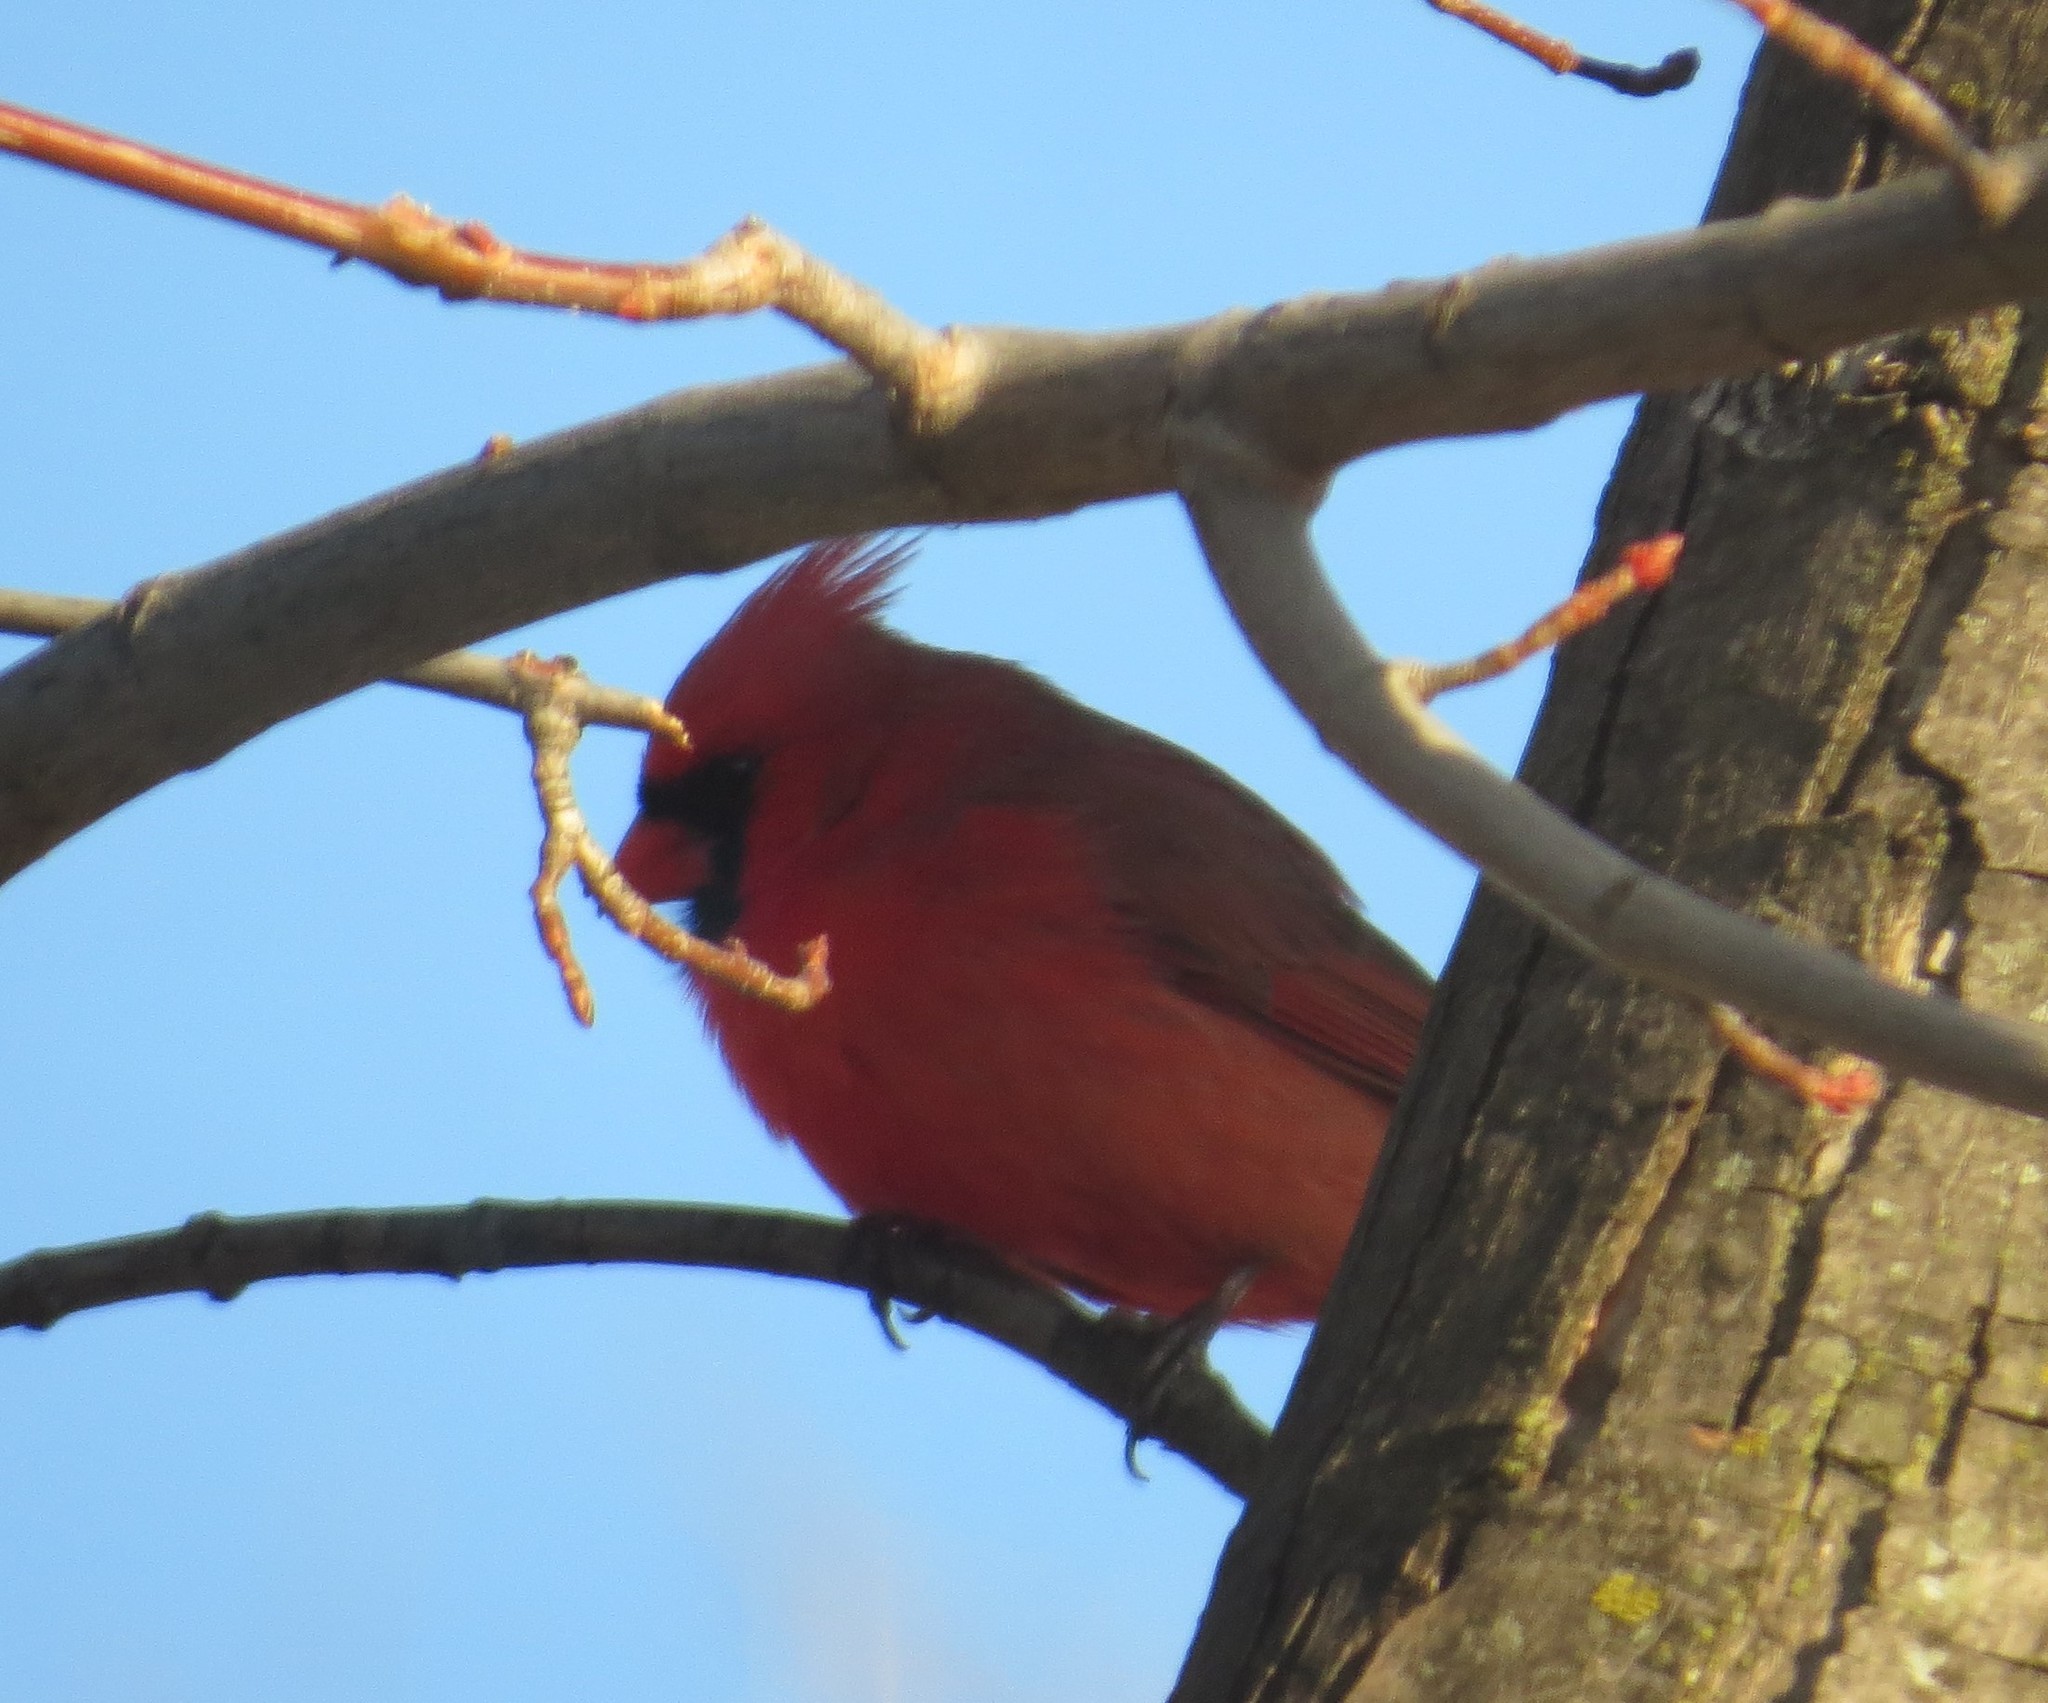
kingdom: Animalia
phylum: Chordata
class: Aves
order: Passeriformes
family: Cardinalidae
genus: Cardinalis
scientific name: Cardinalis cardinalis
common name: Northern cardinal
